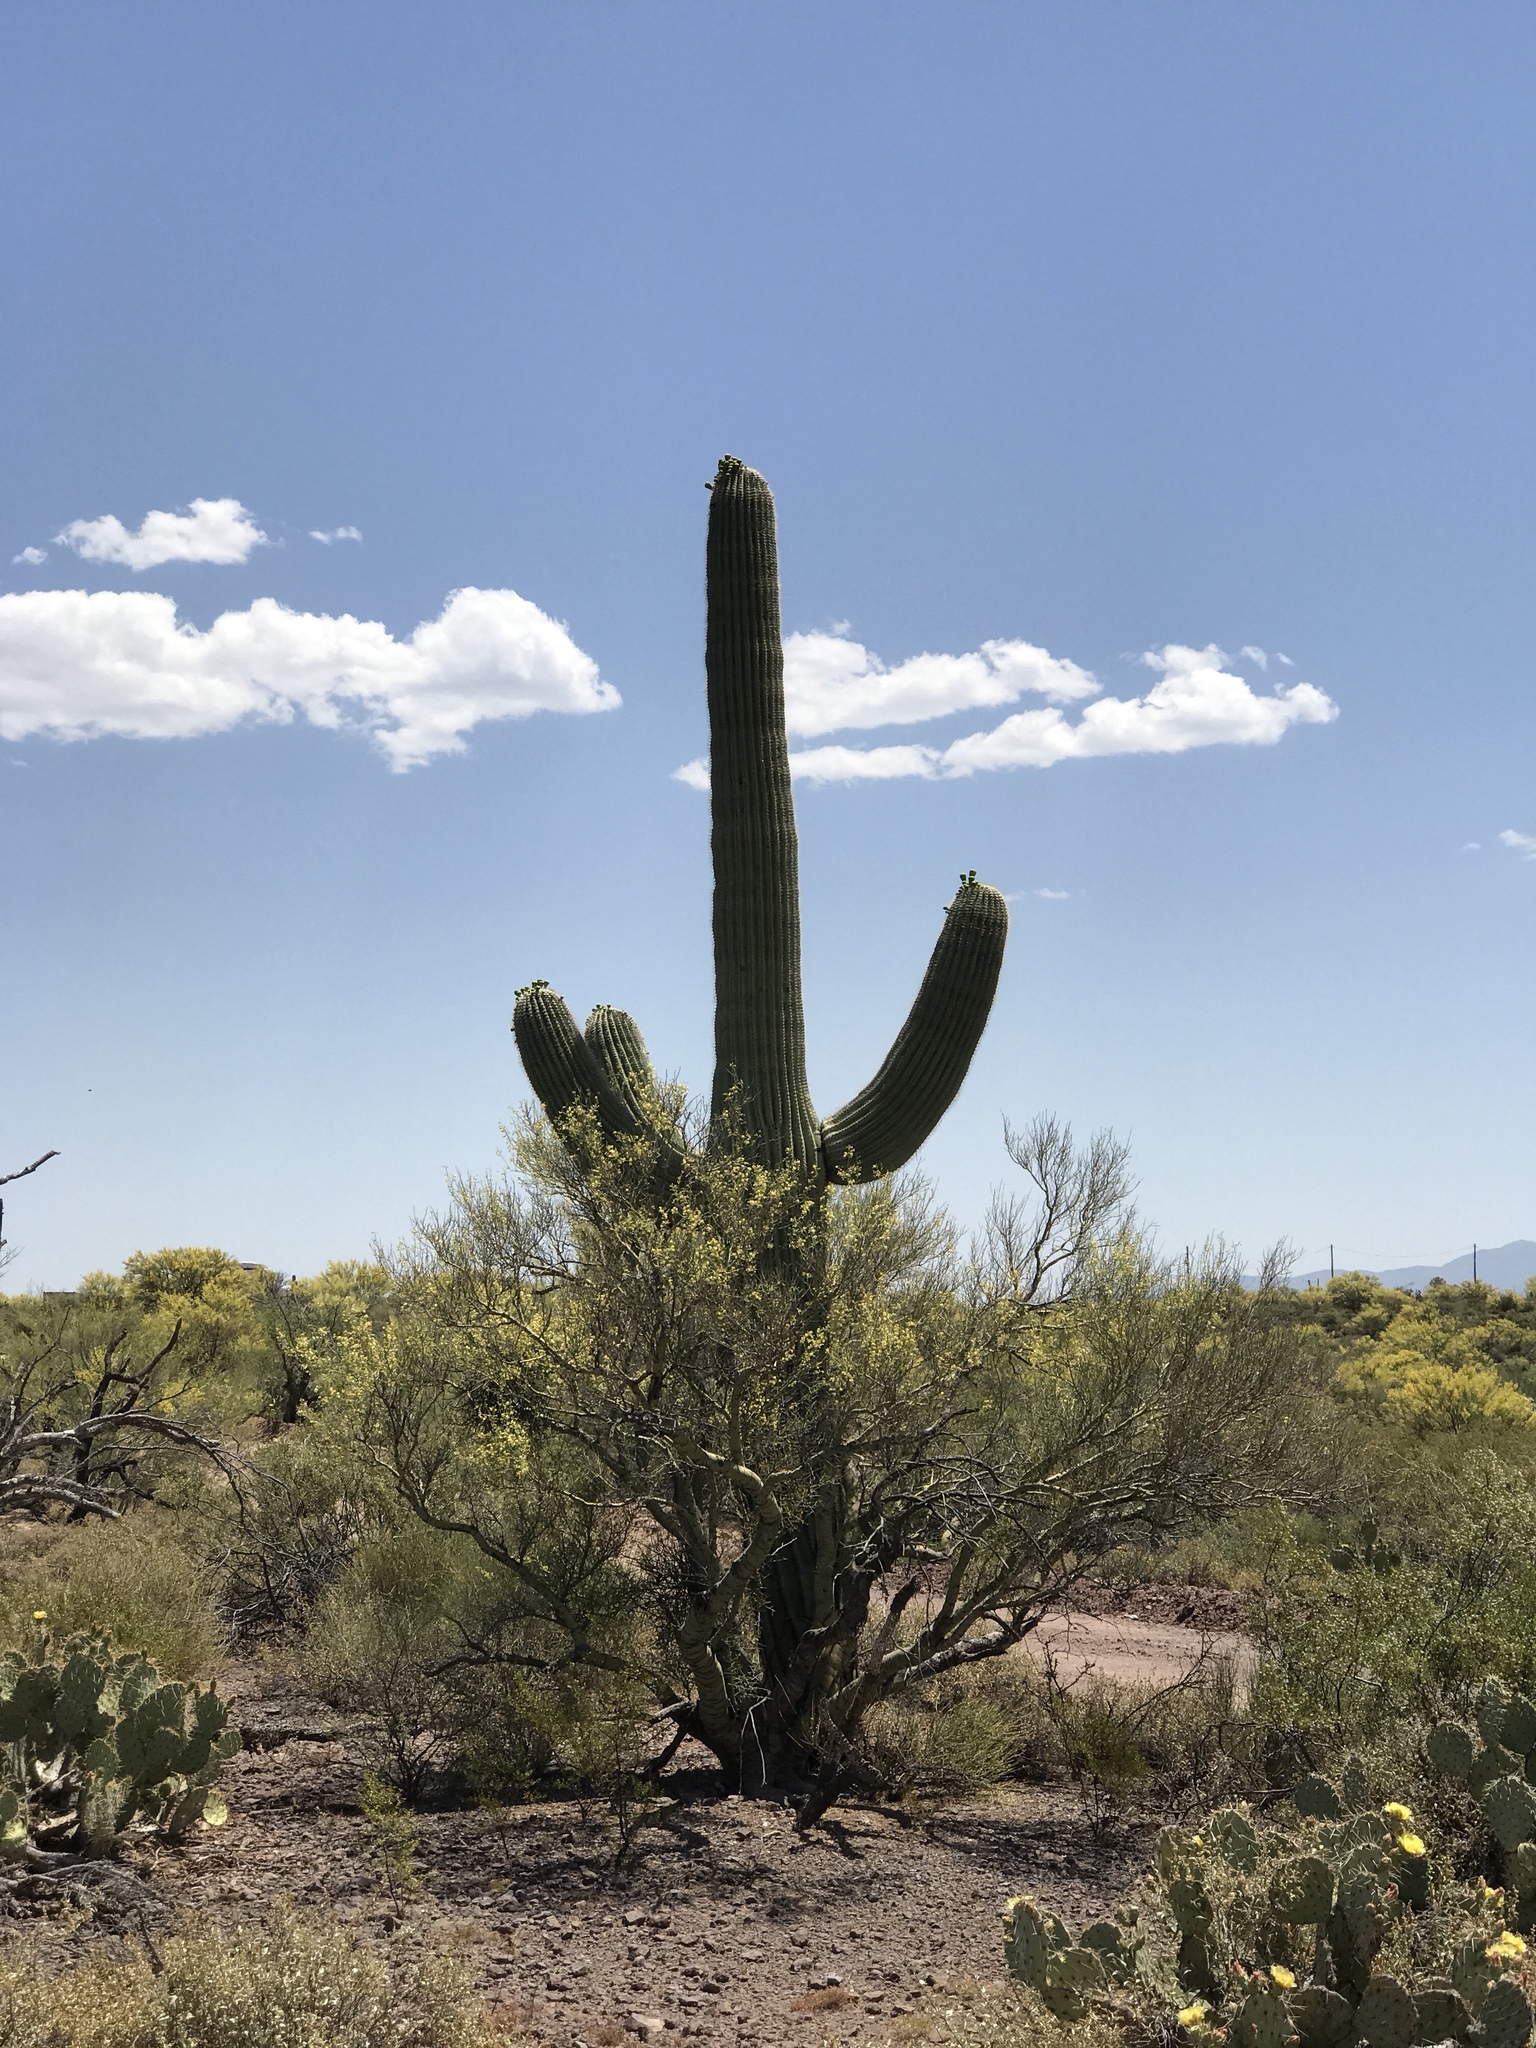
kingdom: Plantae
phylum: Tracheophyta
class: Magnoliopsida
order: Fabales
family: Fabaceae
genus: Parkinsonia
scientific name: Parkinsonia microphylla
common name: Yellow paloverde
